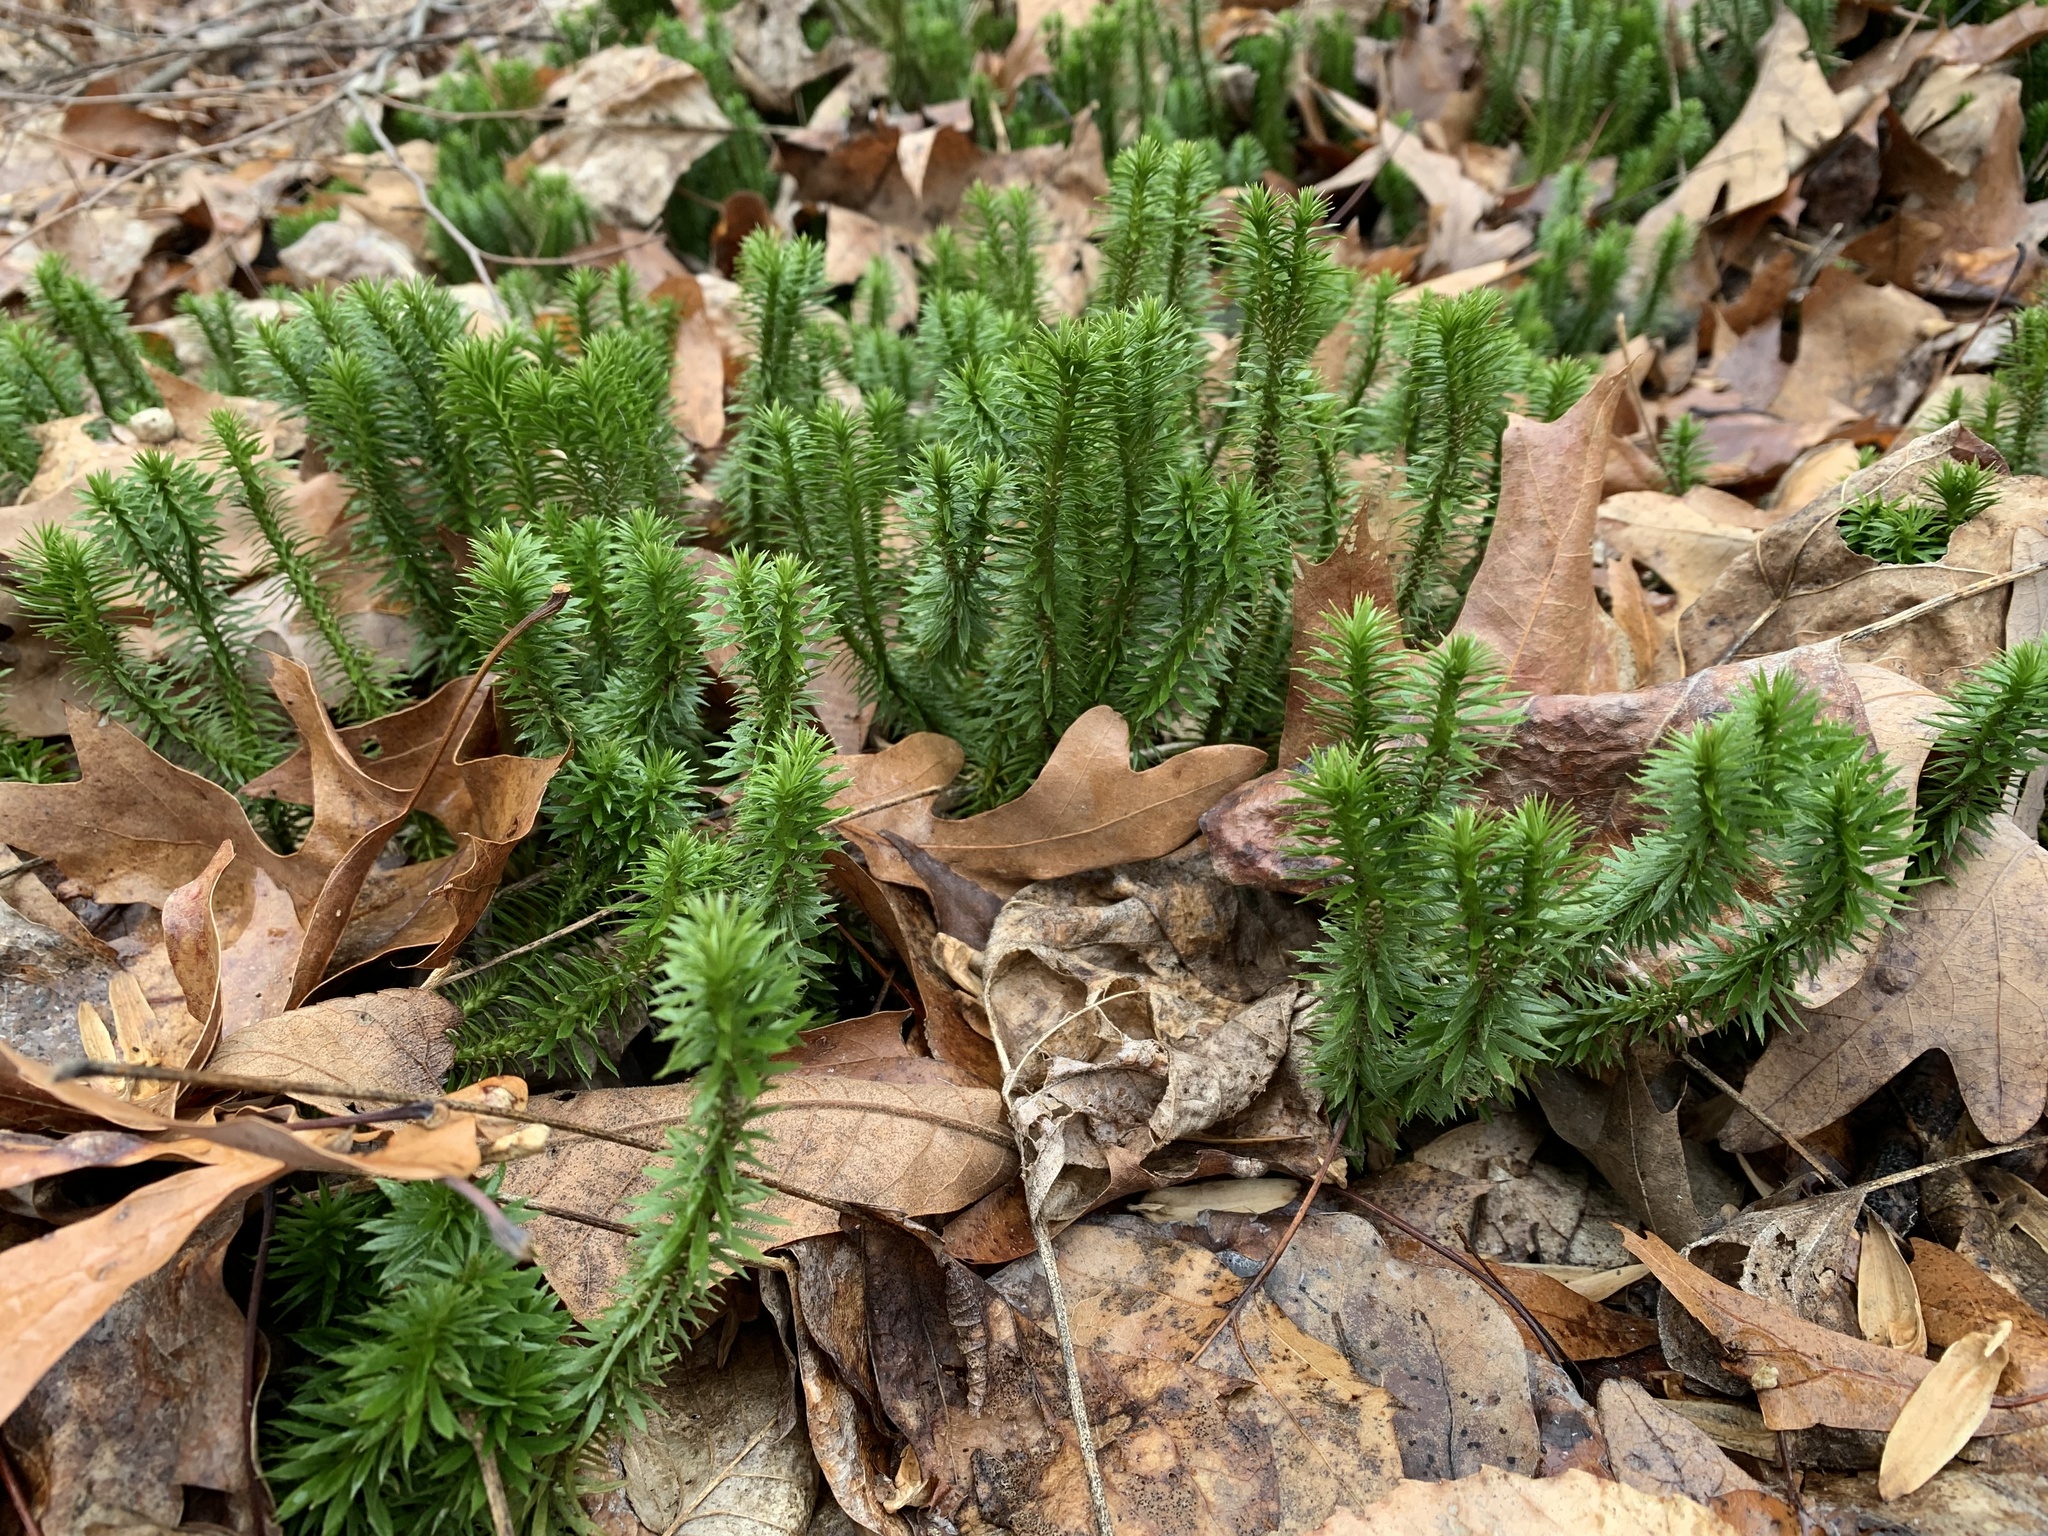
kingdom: Plantae
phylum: Tracheophyta
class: Lycopodiopsida
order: Lycopodiales
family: Lycopodiaceae
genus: Huperzia
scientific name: Huperzia lucidula
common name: Shining clubmoss
